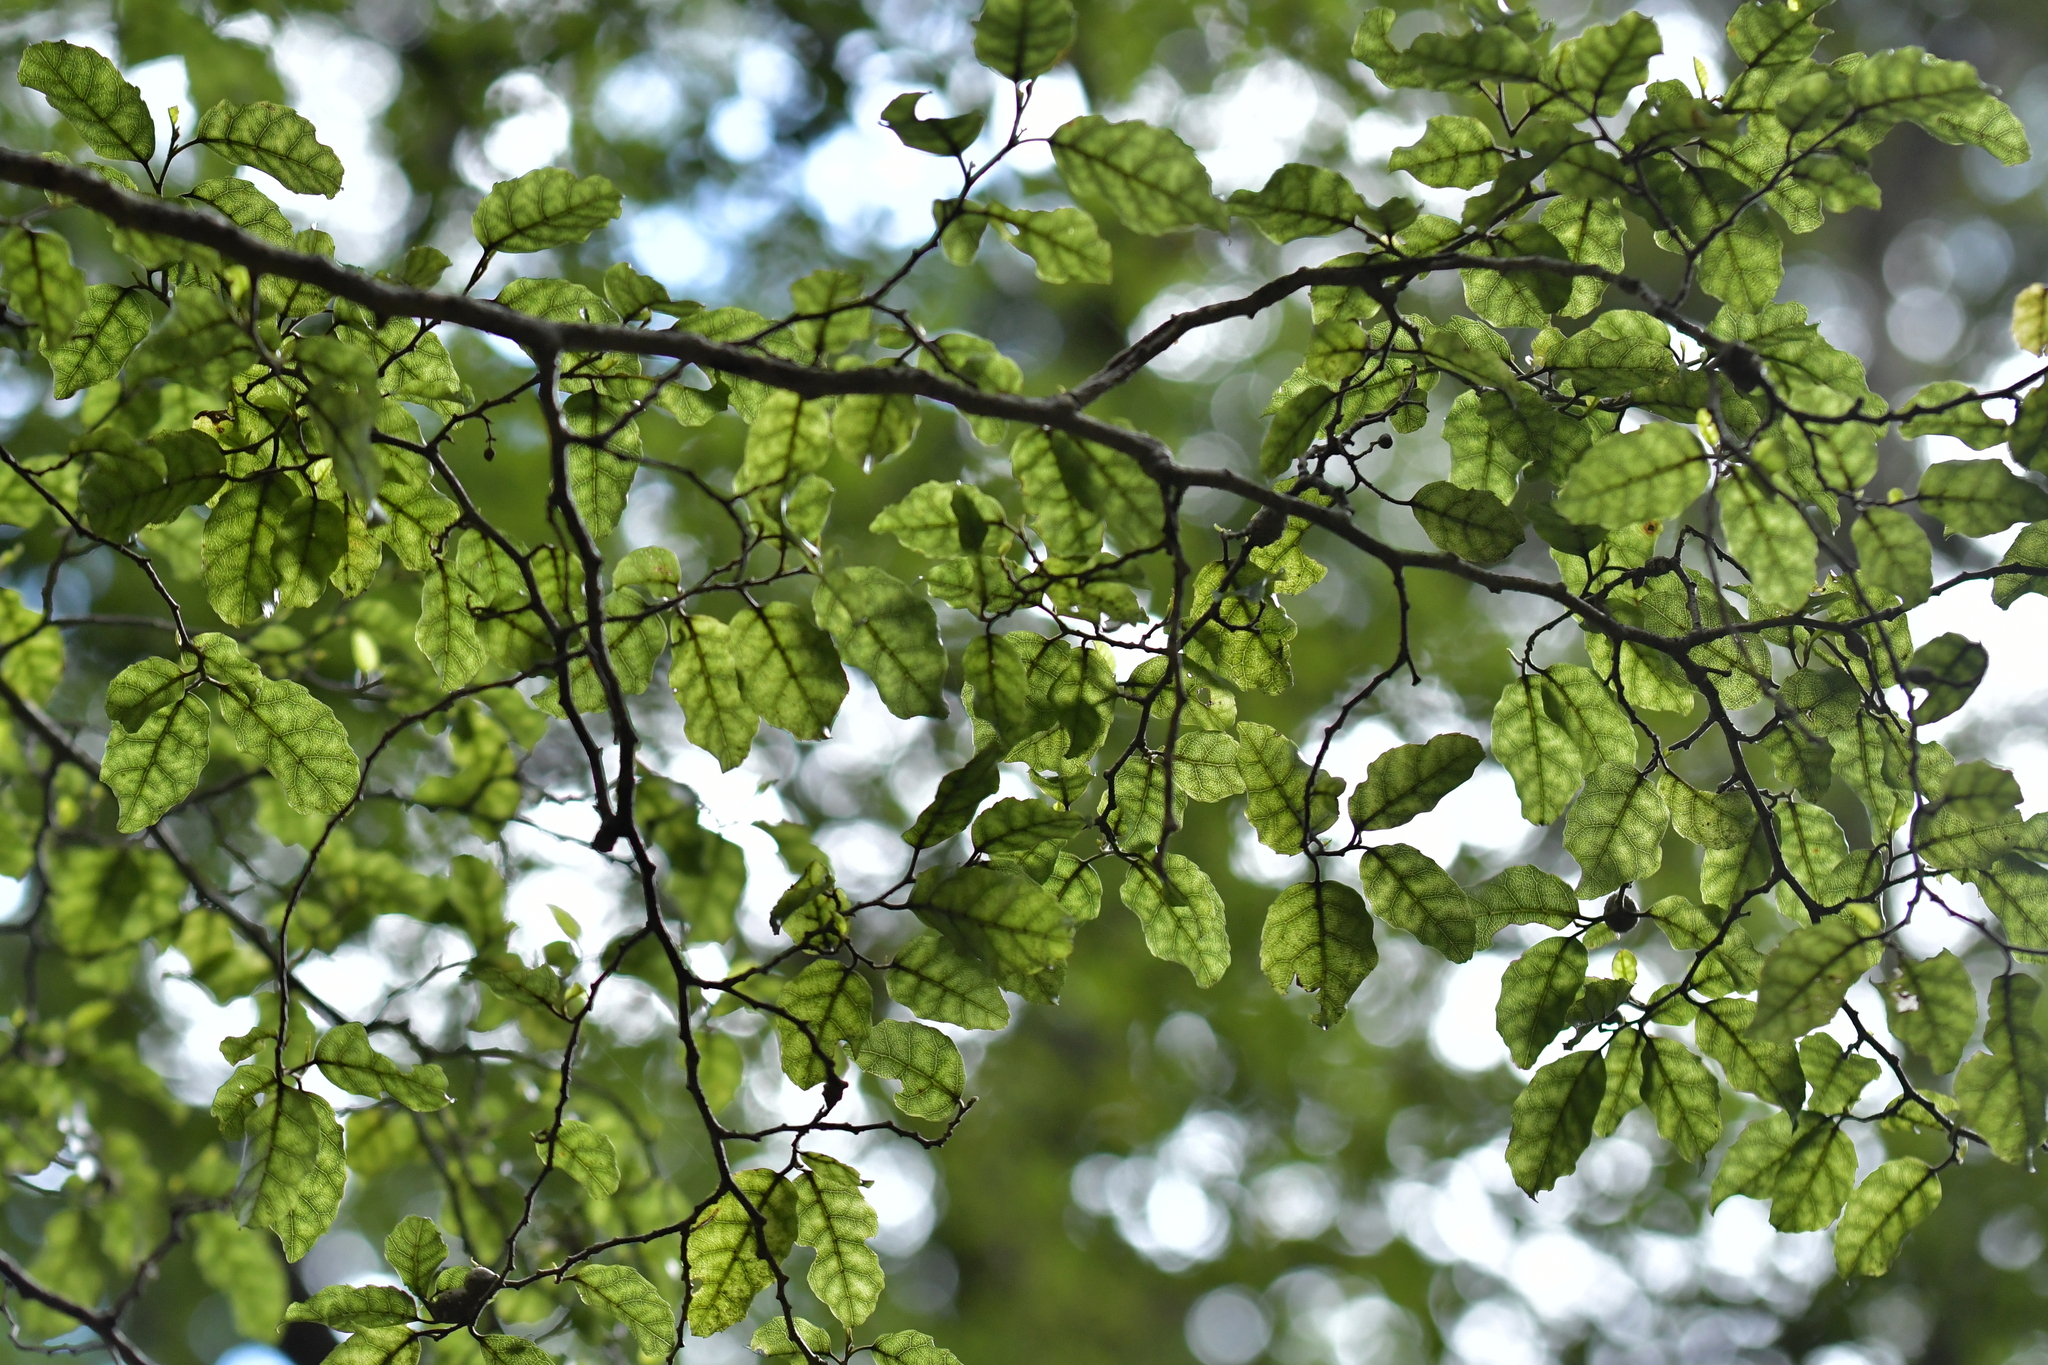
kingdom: Plantae
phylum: Tracheophyta
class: Magnoliopsida
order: Asterales
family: Rousseaceae
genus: Carpodetus
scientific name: Carpodetus serratus
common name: White mapau
